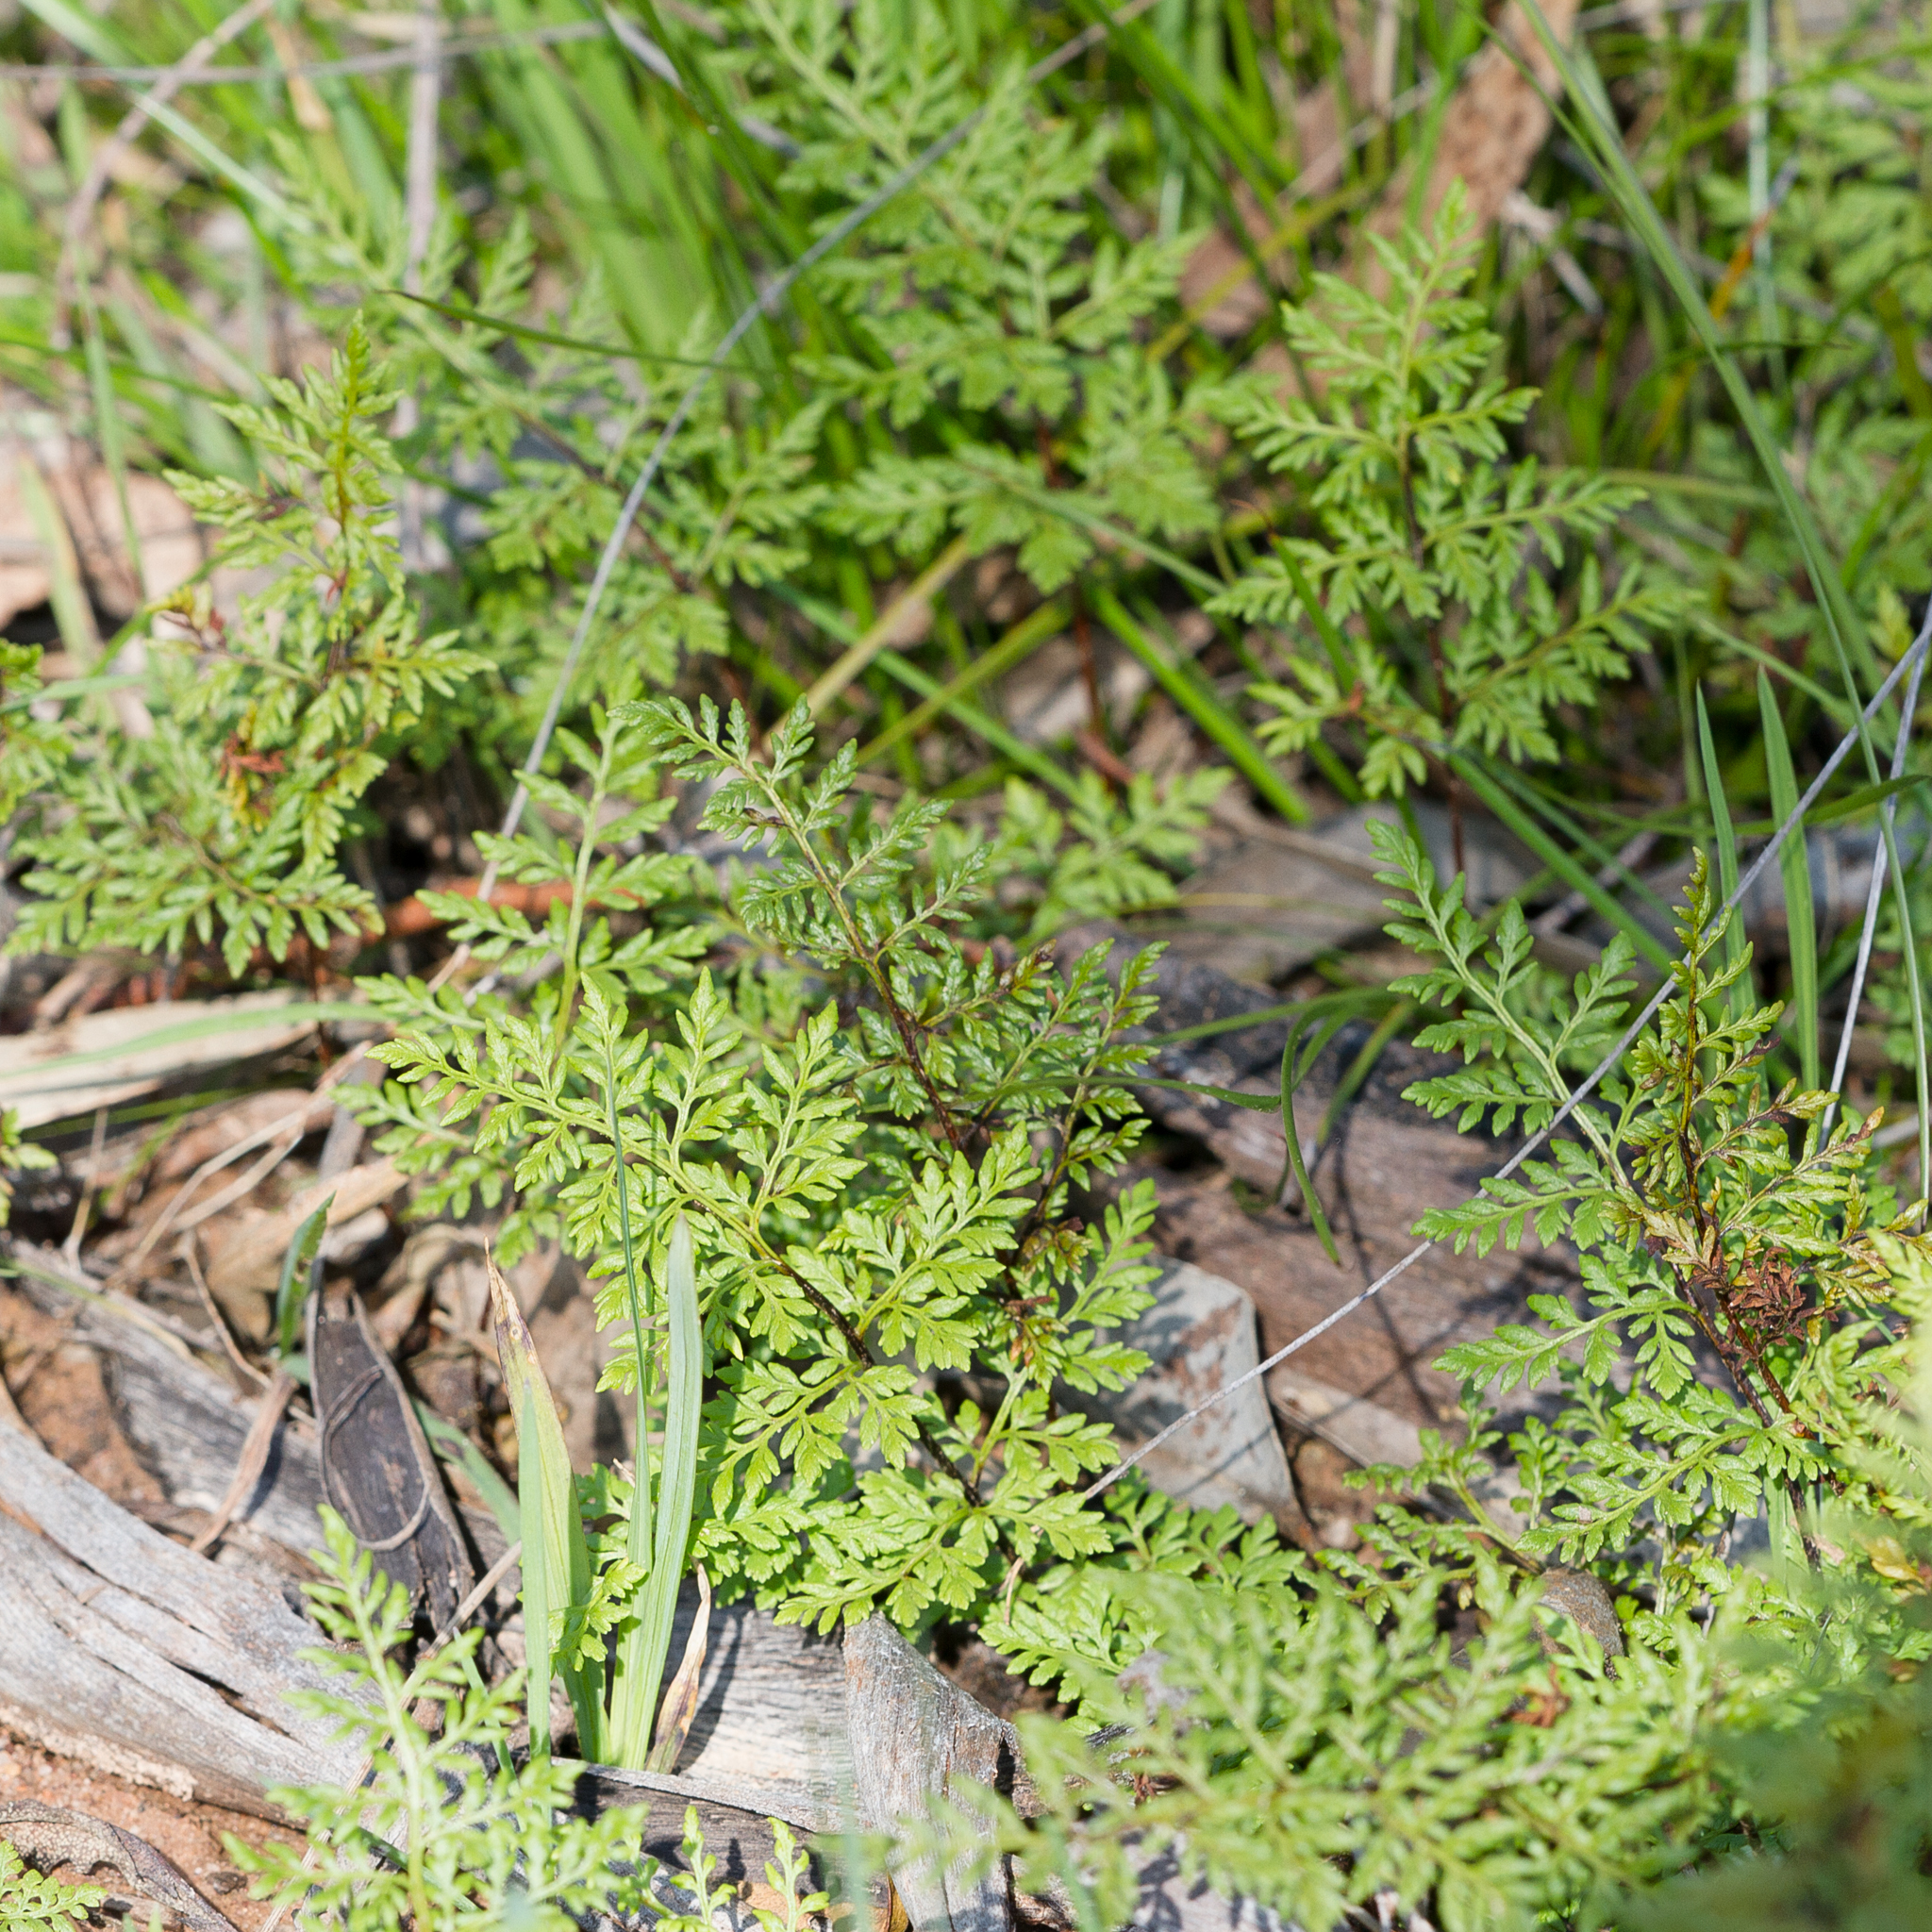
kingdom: Plantae
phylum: Tracheophyta
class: Polypodiopsida
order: Polypodiales
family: Pteridaceae
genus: Cheilanthes
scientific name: Cheilanthes austrotenuifolia
